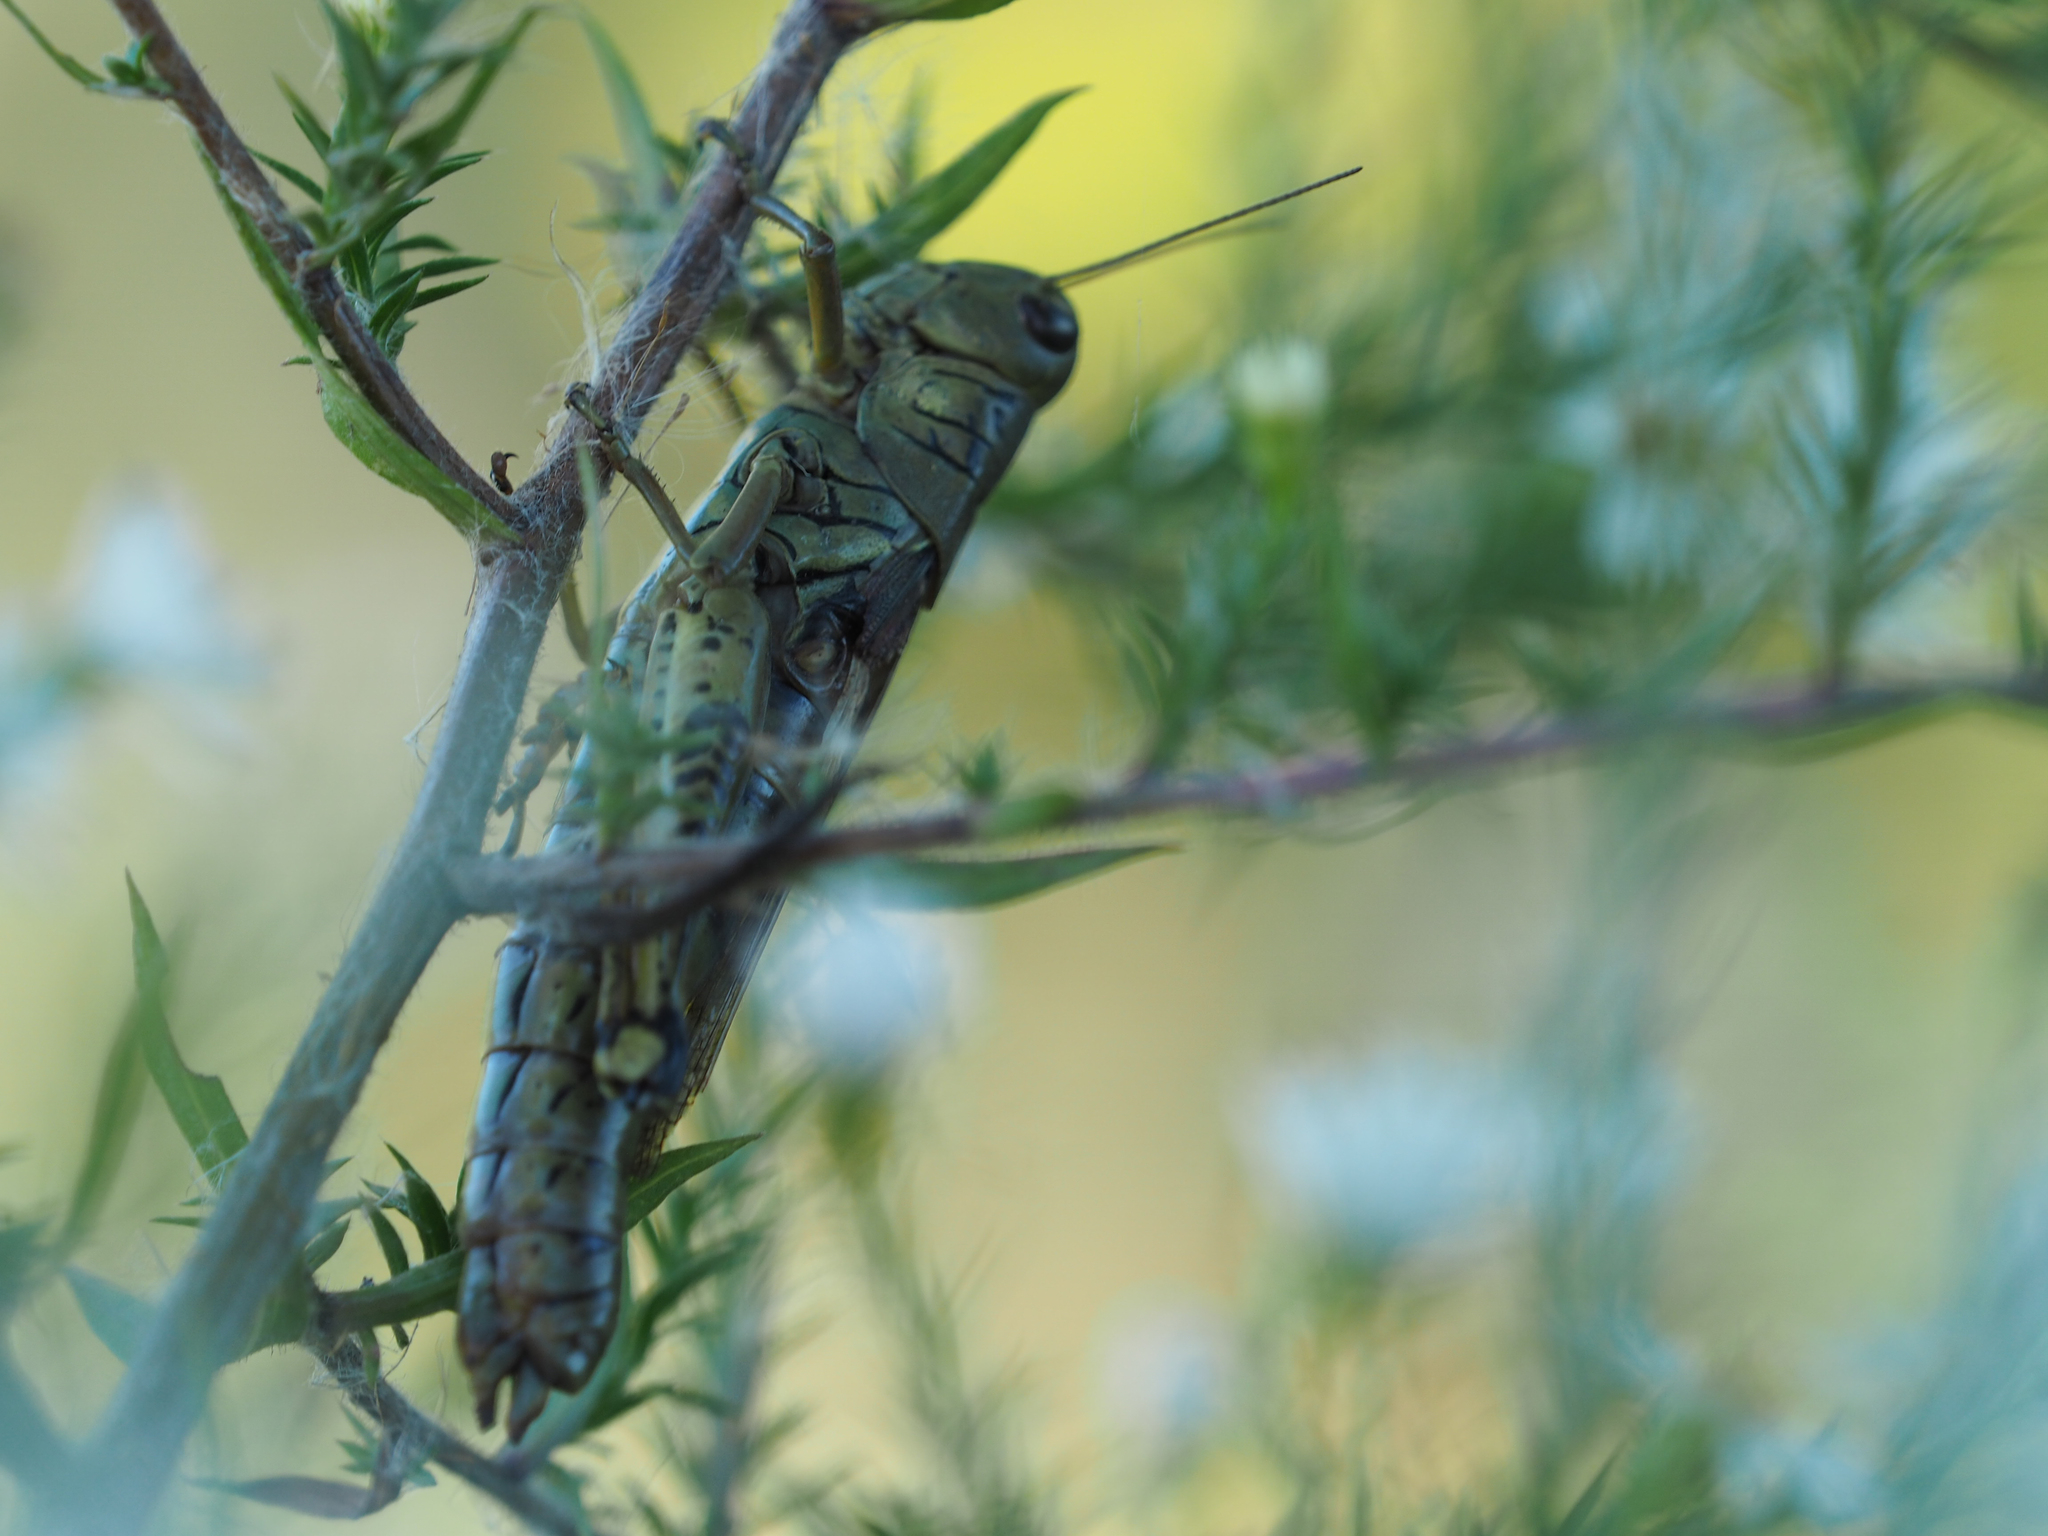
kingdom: Animalia
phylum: Arthropoda
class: Insecta
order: Orthoptera
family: Acrididae
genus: Melanoplus
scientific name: Melanoplus differentialis
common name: Differential grasshopper
